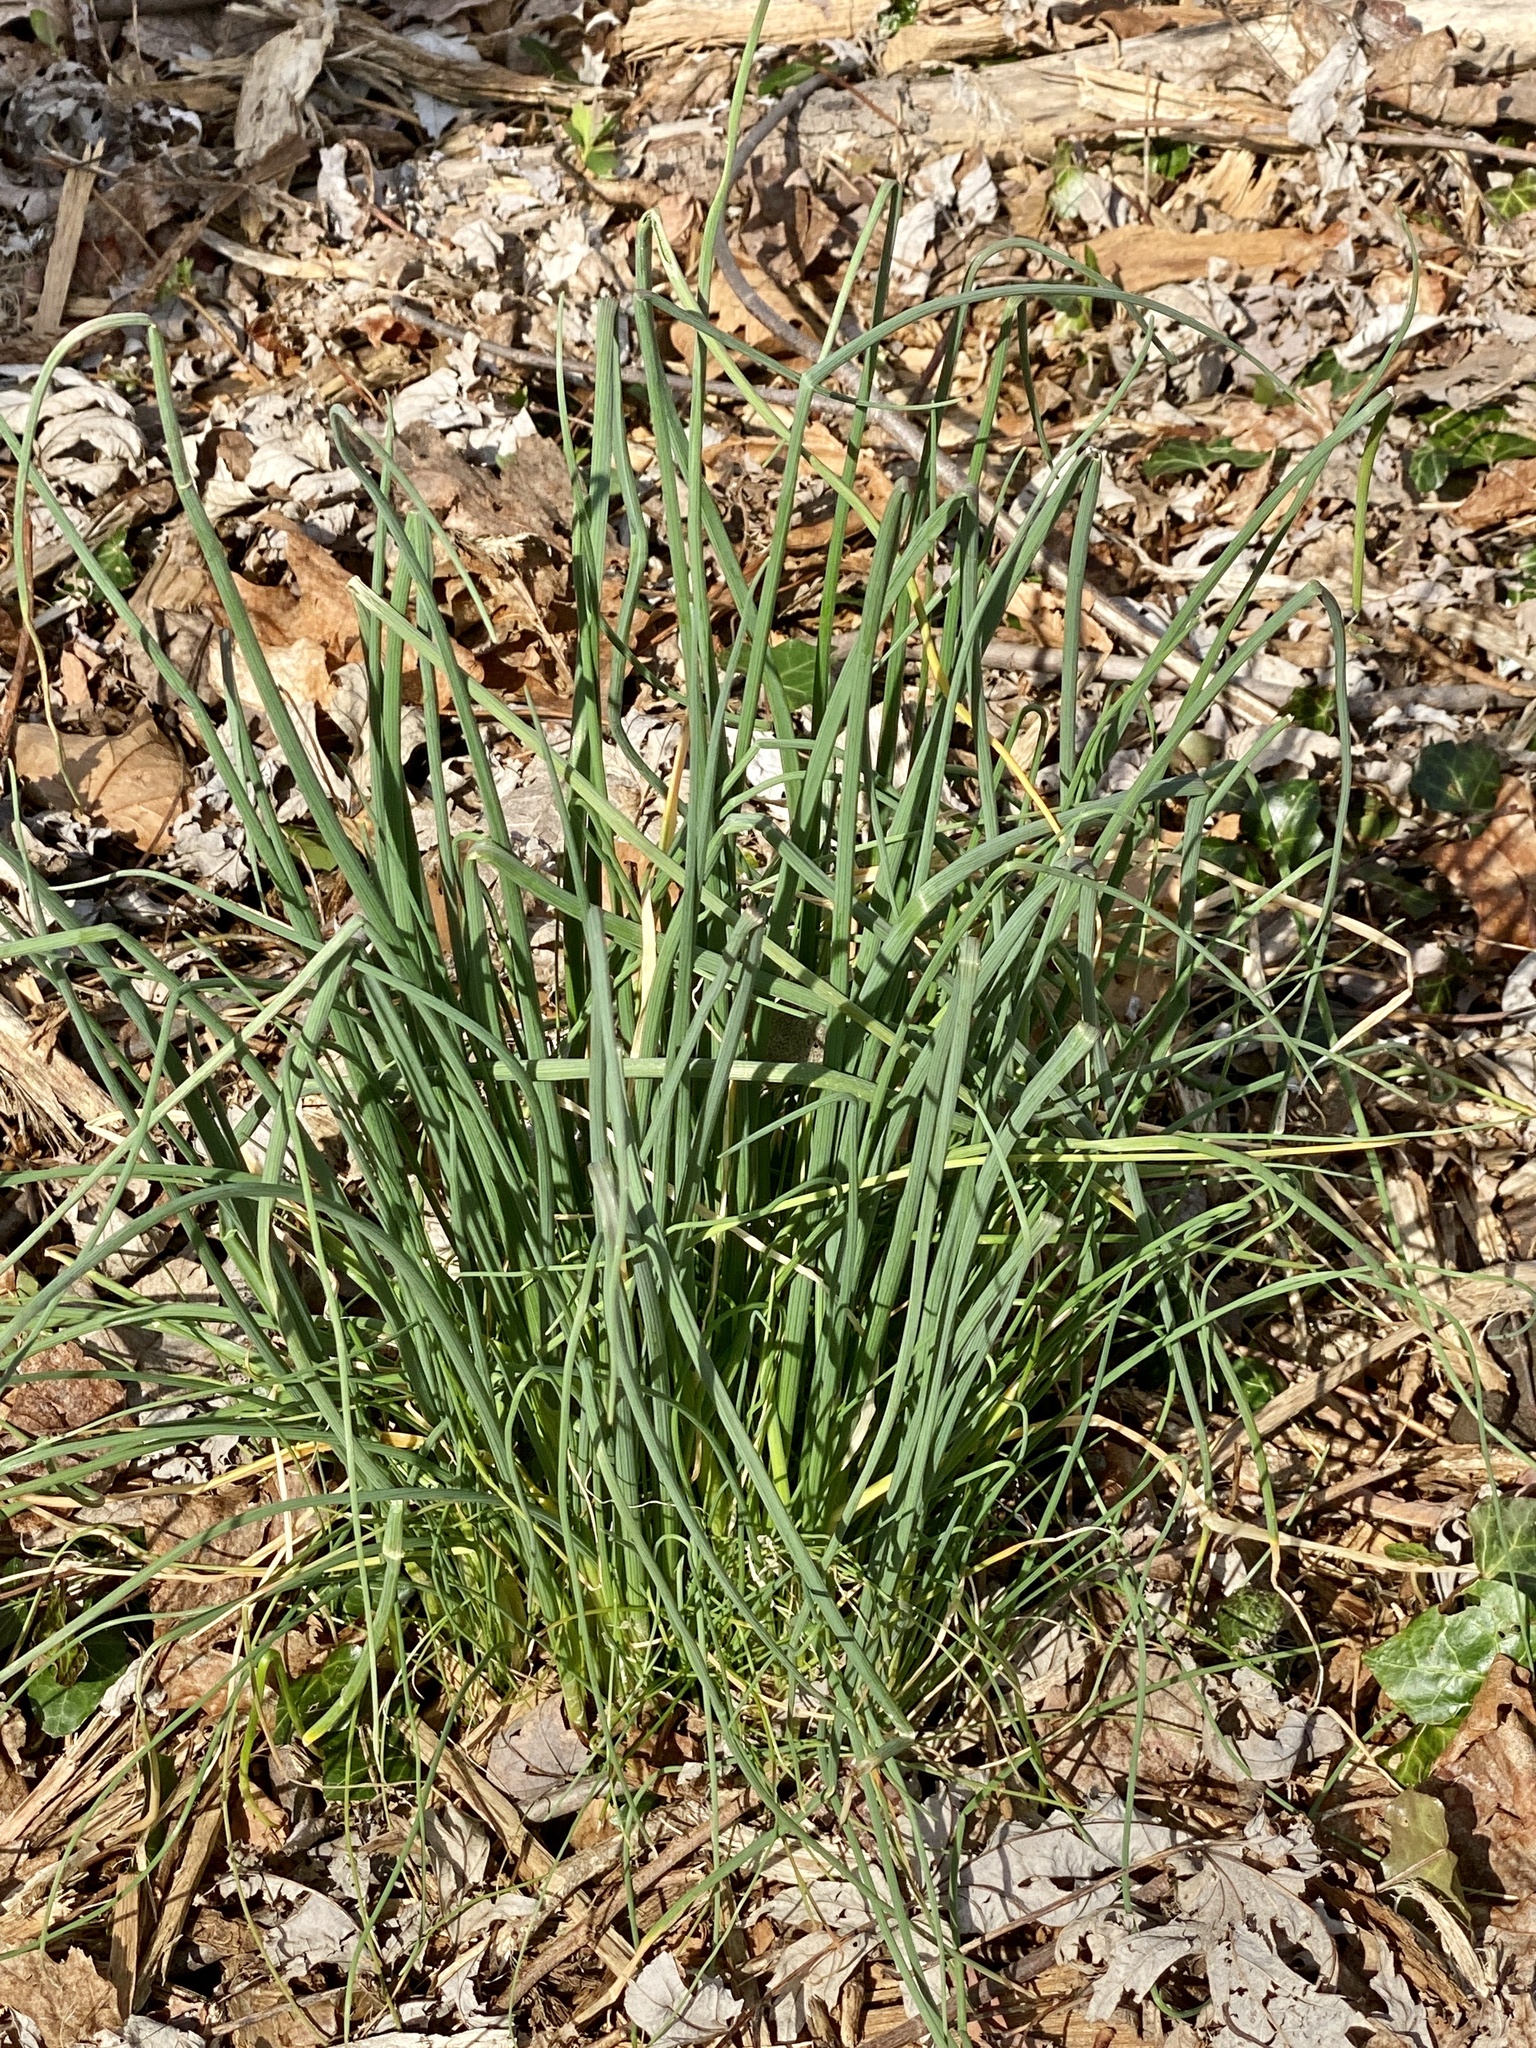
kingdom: Plantae
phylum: Tracheophyta
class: Liliopsida
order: Asparagales
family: Amaryllidaceae
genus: Allium
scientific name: Allium vineale
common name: Crow garlic
